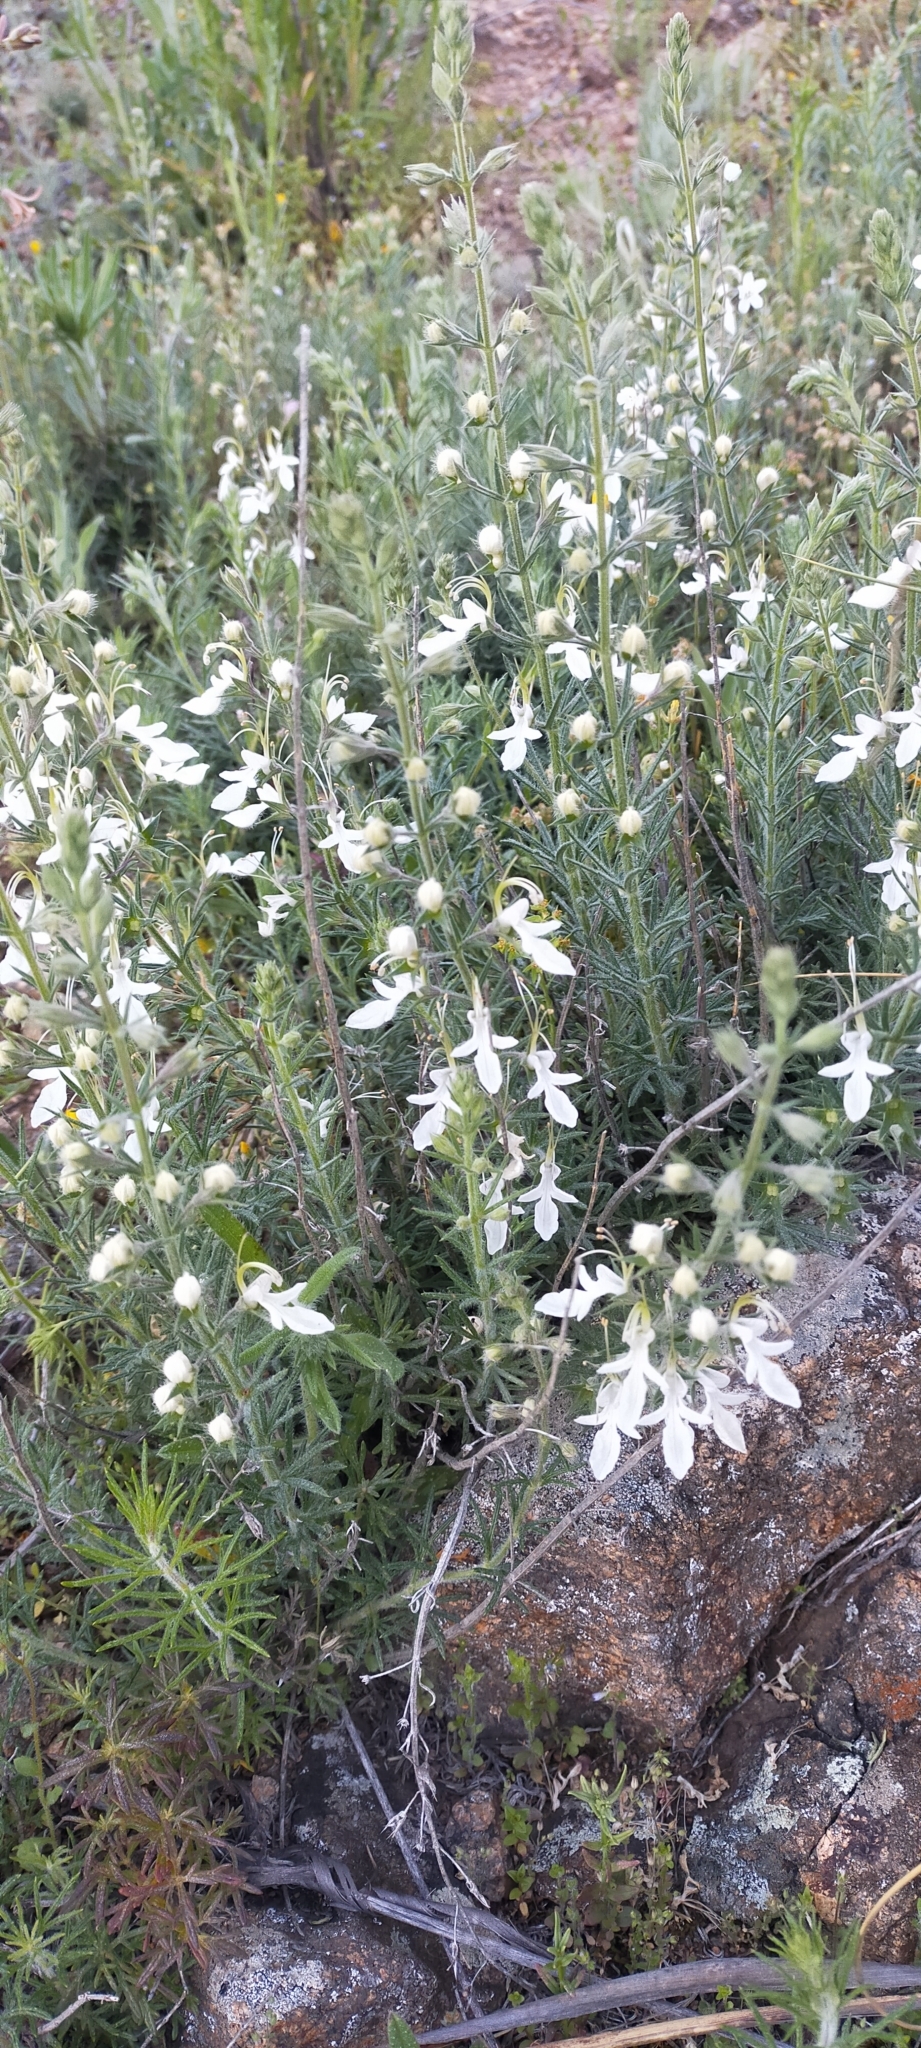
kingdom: Plantae
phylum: Tracheophyta
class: Magnoliopsida
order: Lamiales
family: Lamiaceae
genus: Teucrium
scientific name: Teucrium pseudochamaepitys
